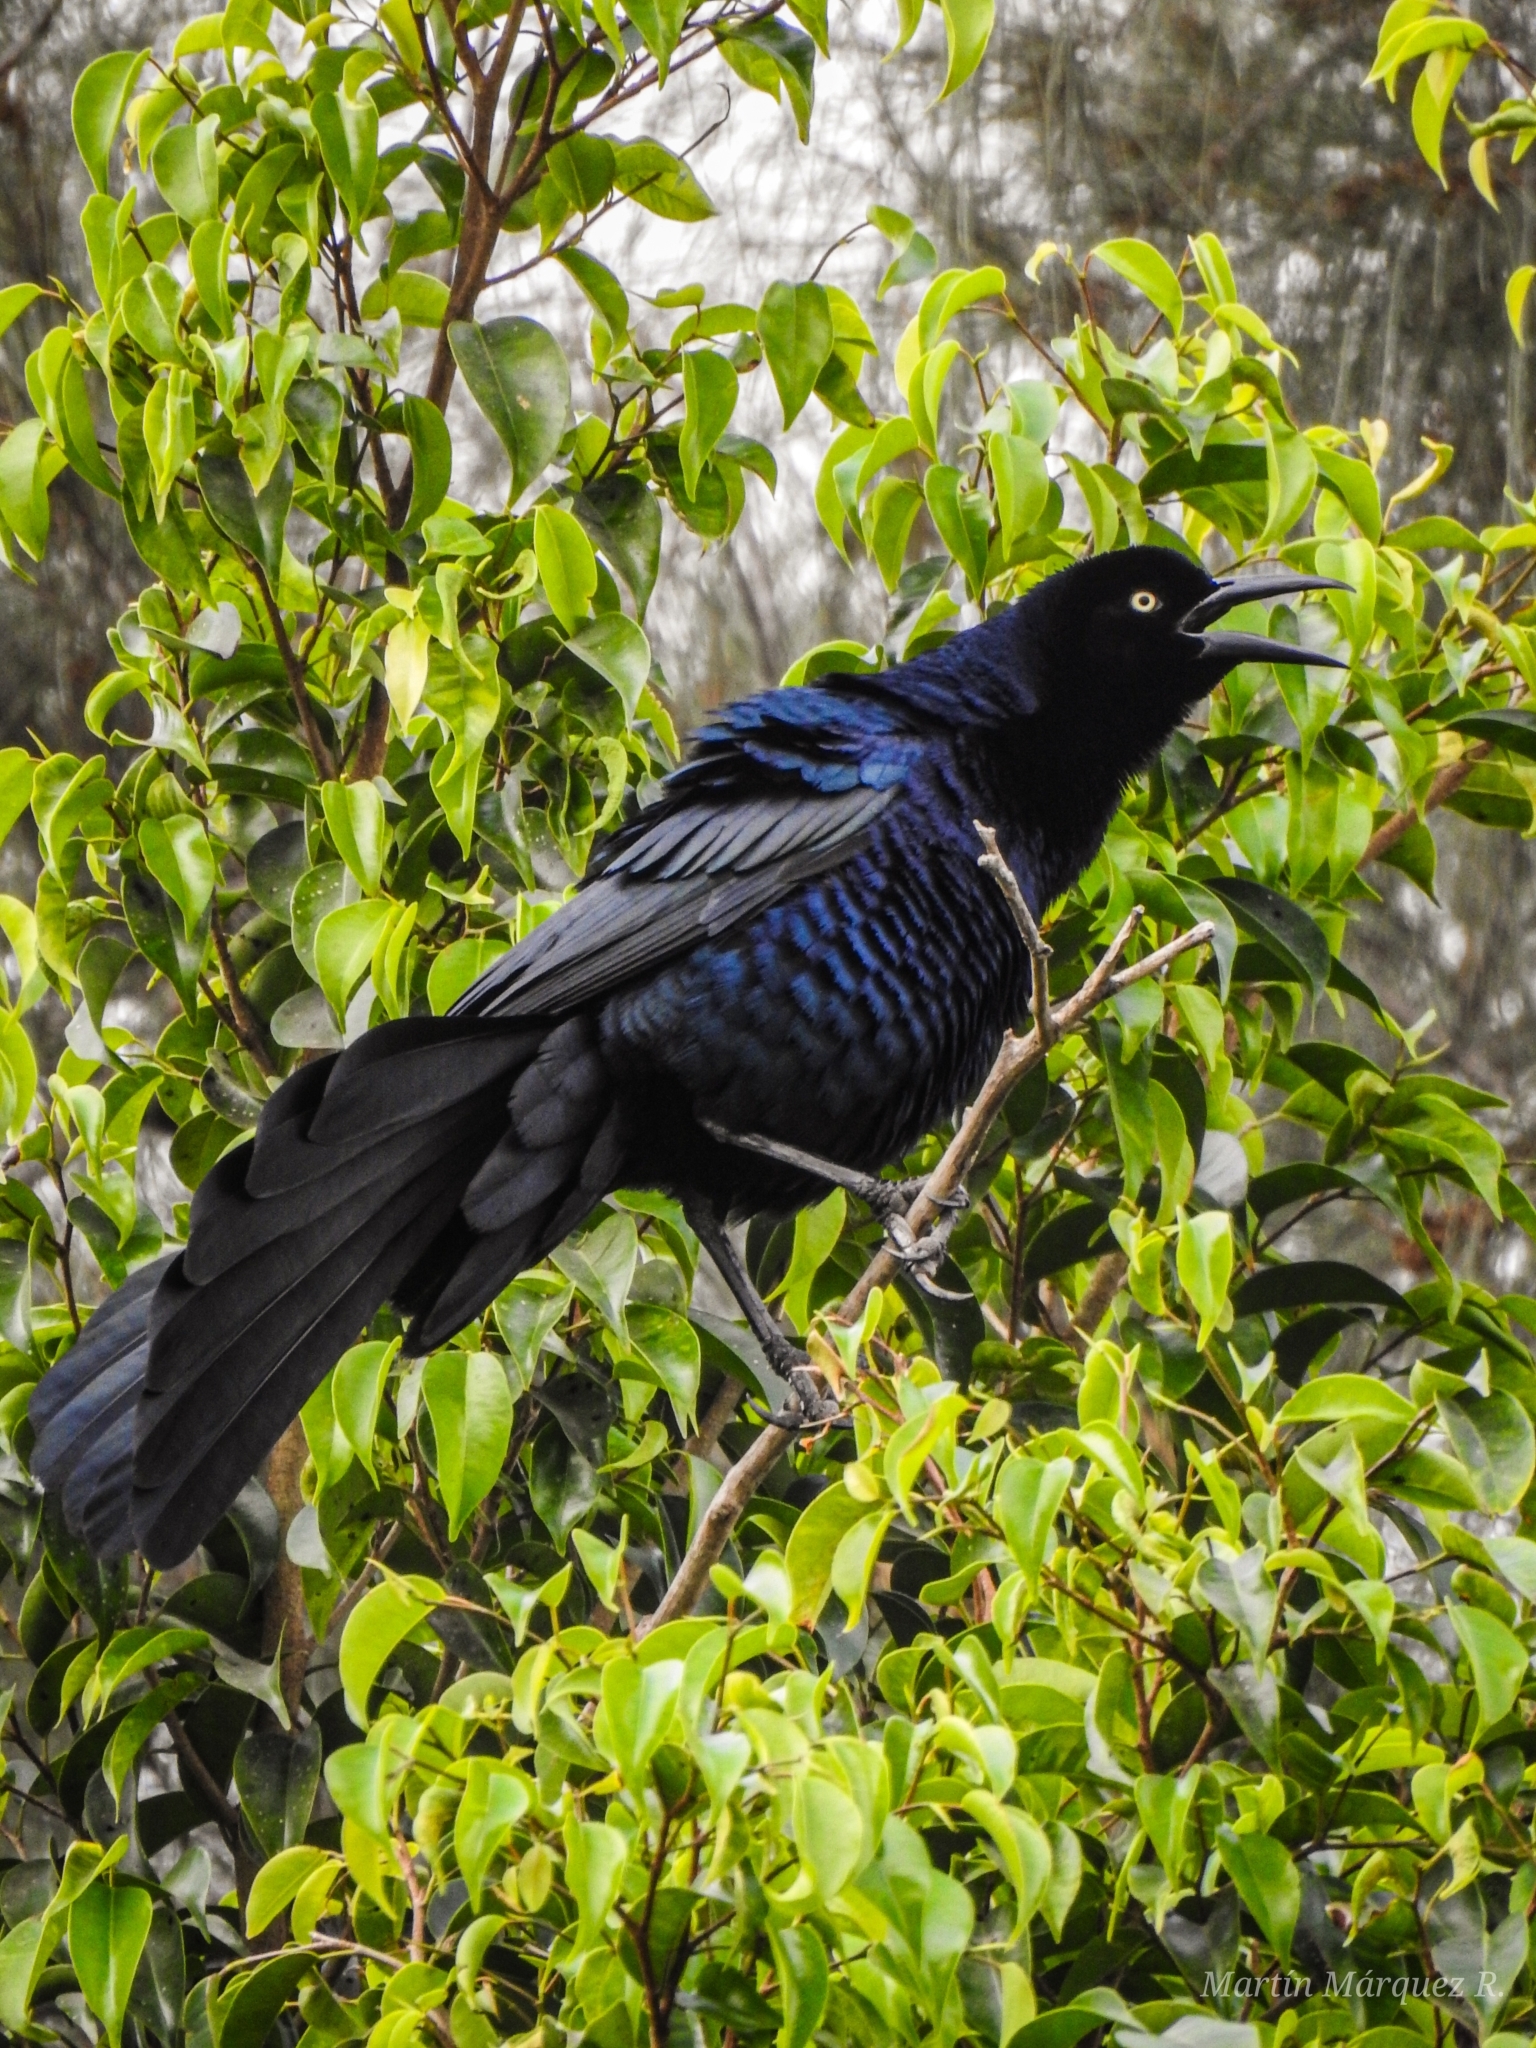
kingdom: Animalia
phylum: Chordata
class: Aves
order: Passeriformes
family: Icteridae
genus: Quiscalus
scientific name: Quiscalus mexicanus
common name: Great-tailed grackle
